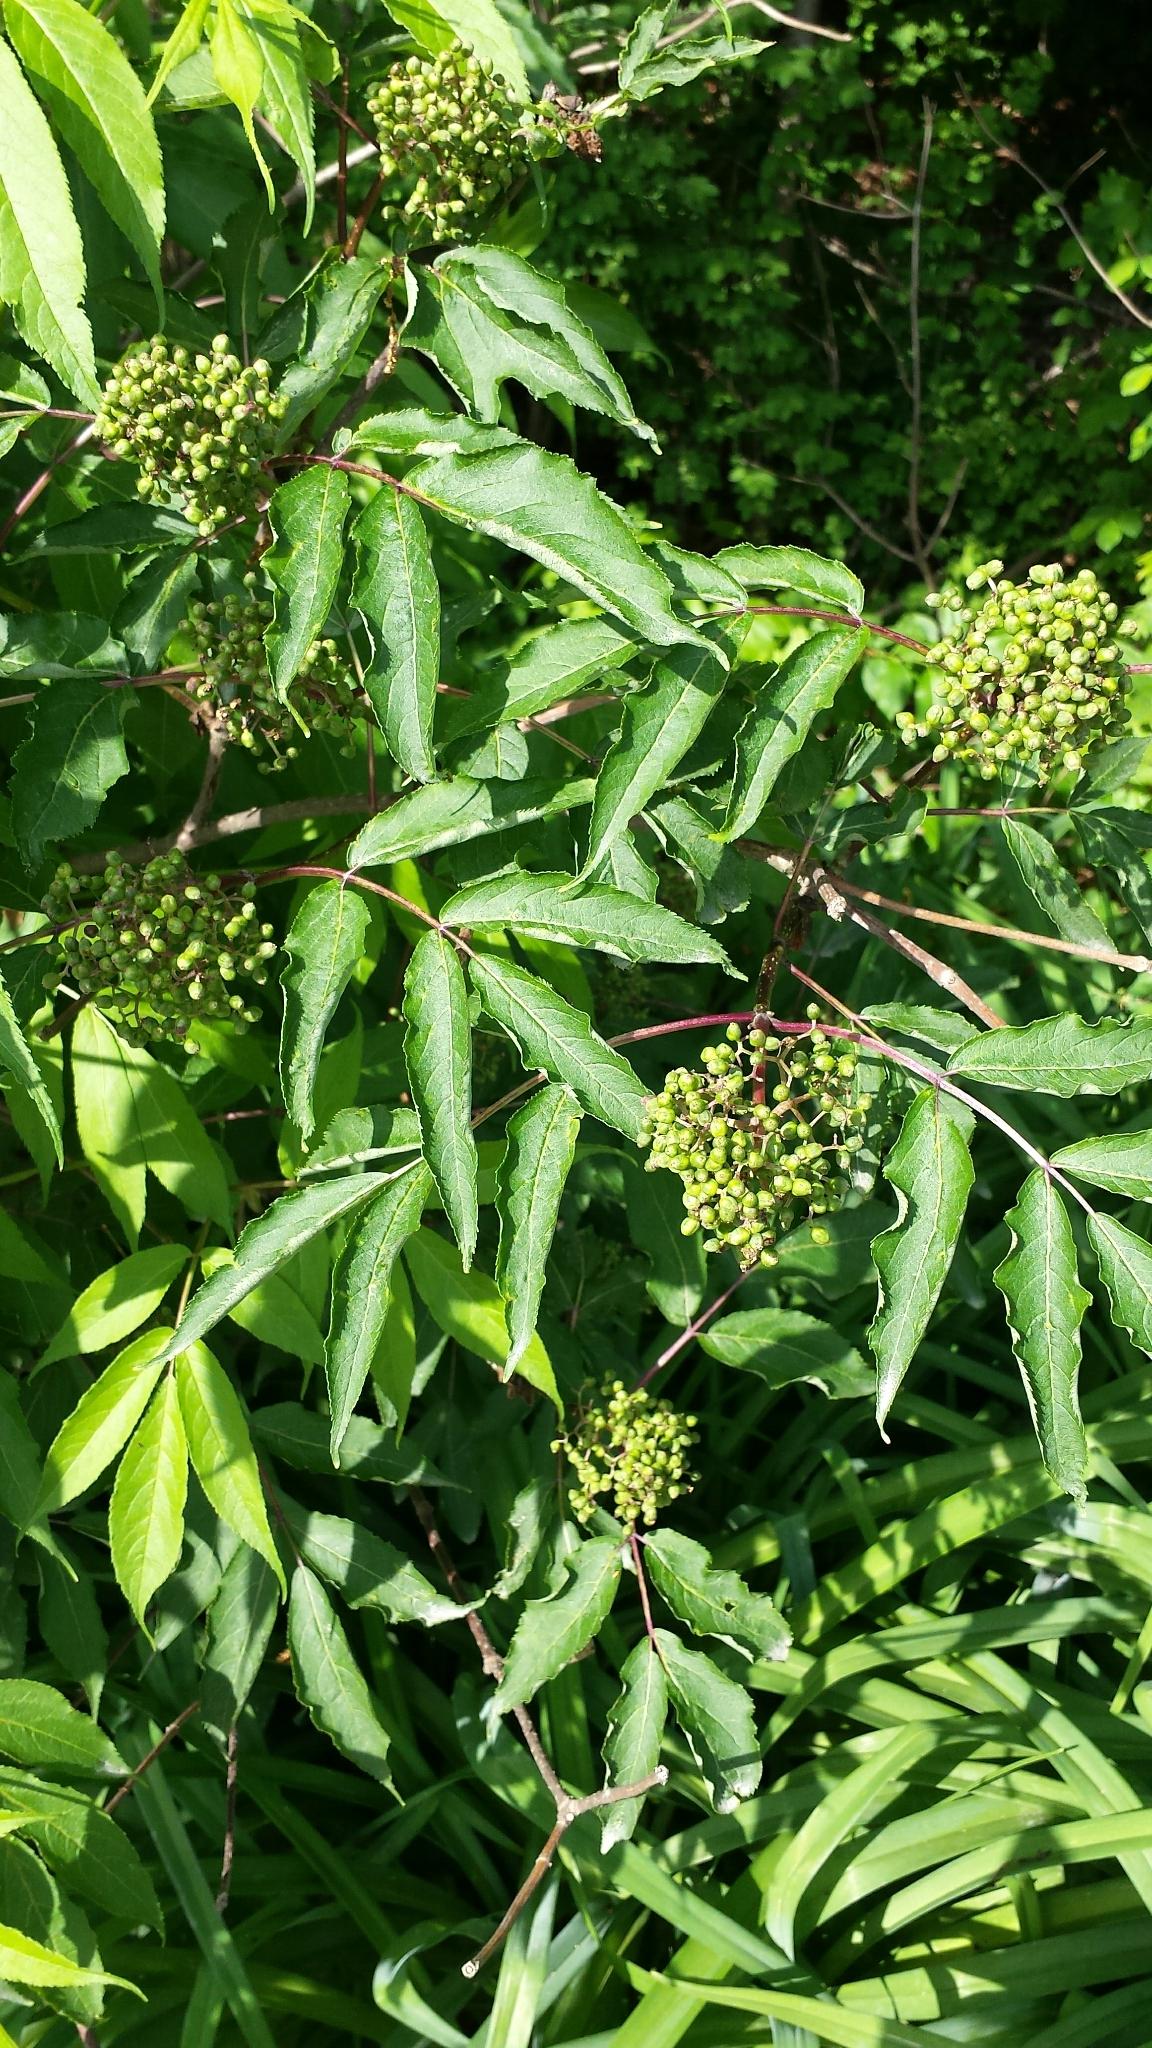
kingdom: Plantae
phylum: Tracheophyta
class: Magnoliopsida
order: Dipsacales
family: Viburnaceae
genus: Sambucus
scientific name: Sambucus racemosa
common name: Red-berried elder
